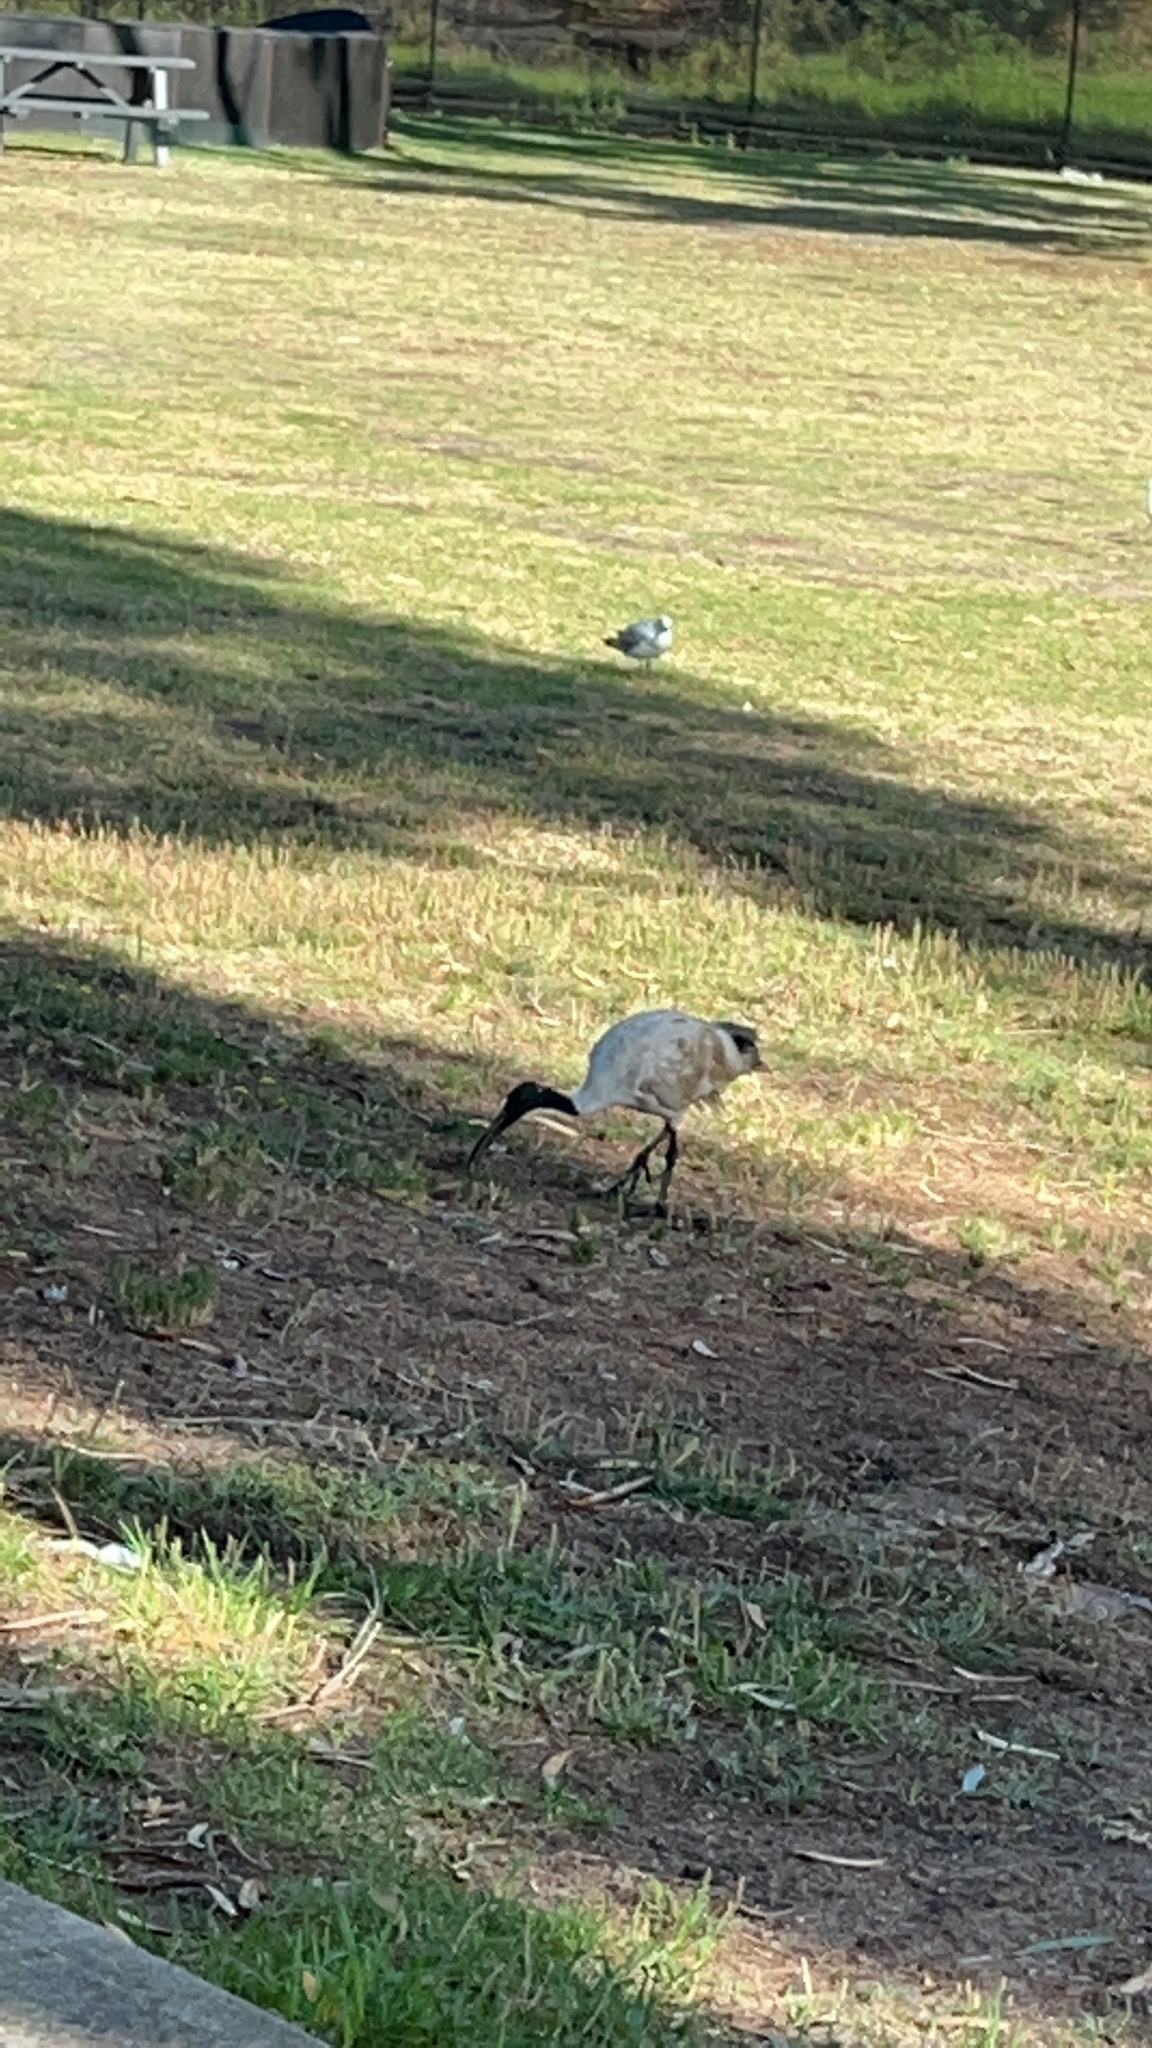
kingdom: Animalia
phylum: Chordata
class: Aves
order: Pelecaniformes
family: Threskiornithidae
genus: Threskiornis
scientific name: Threskiornis molucca
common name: Australian white ibis
